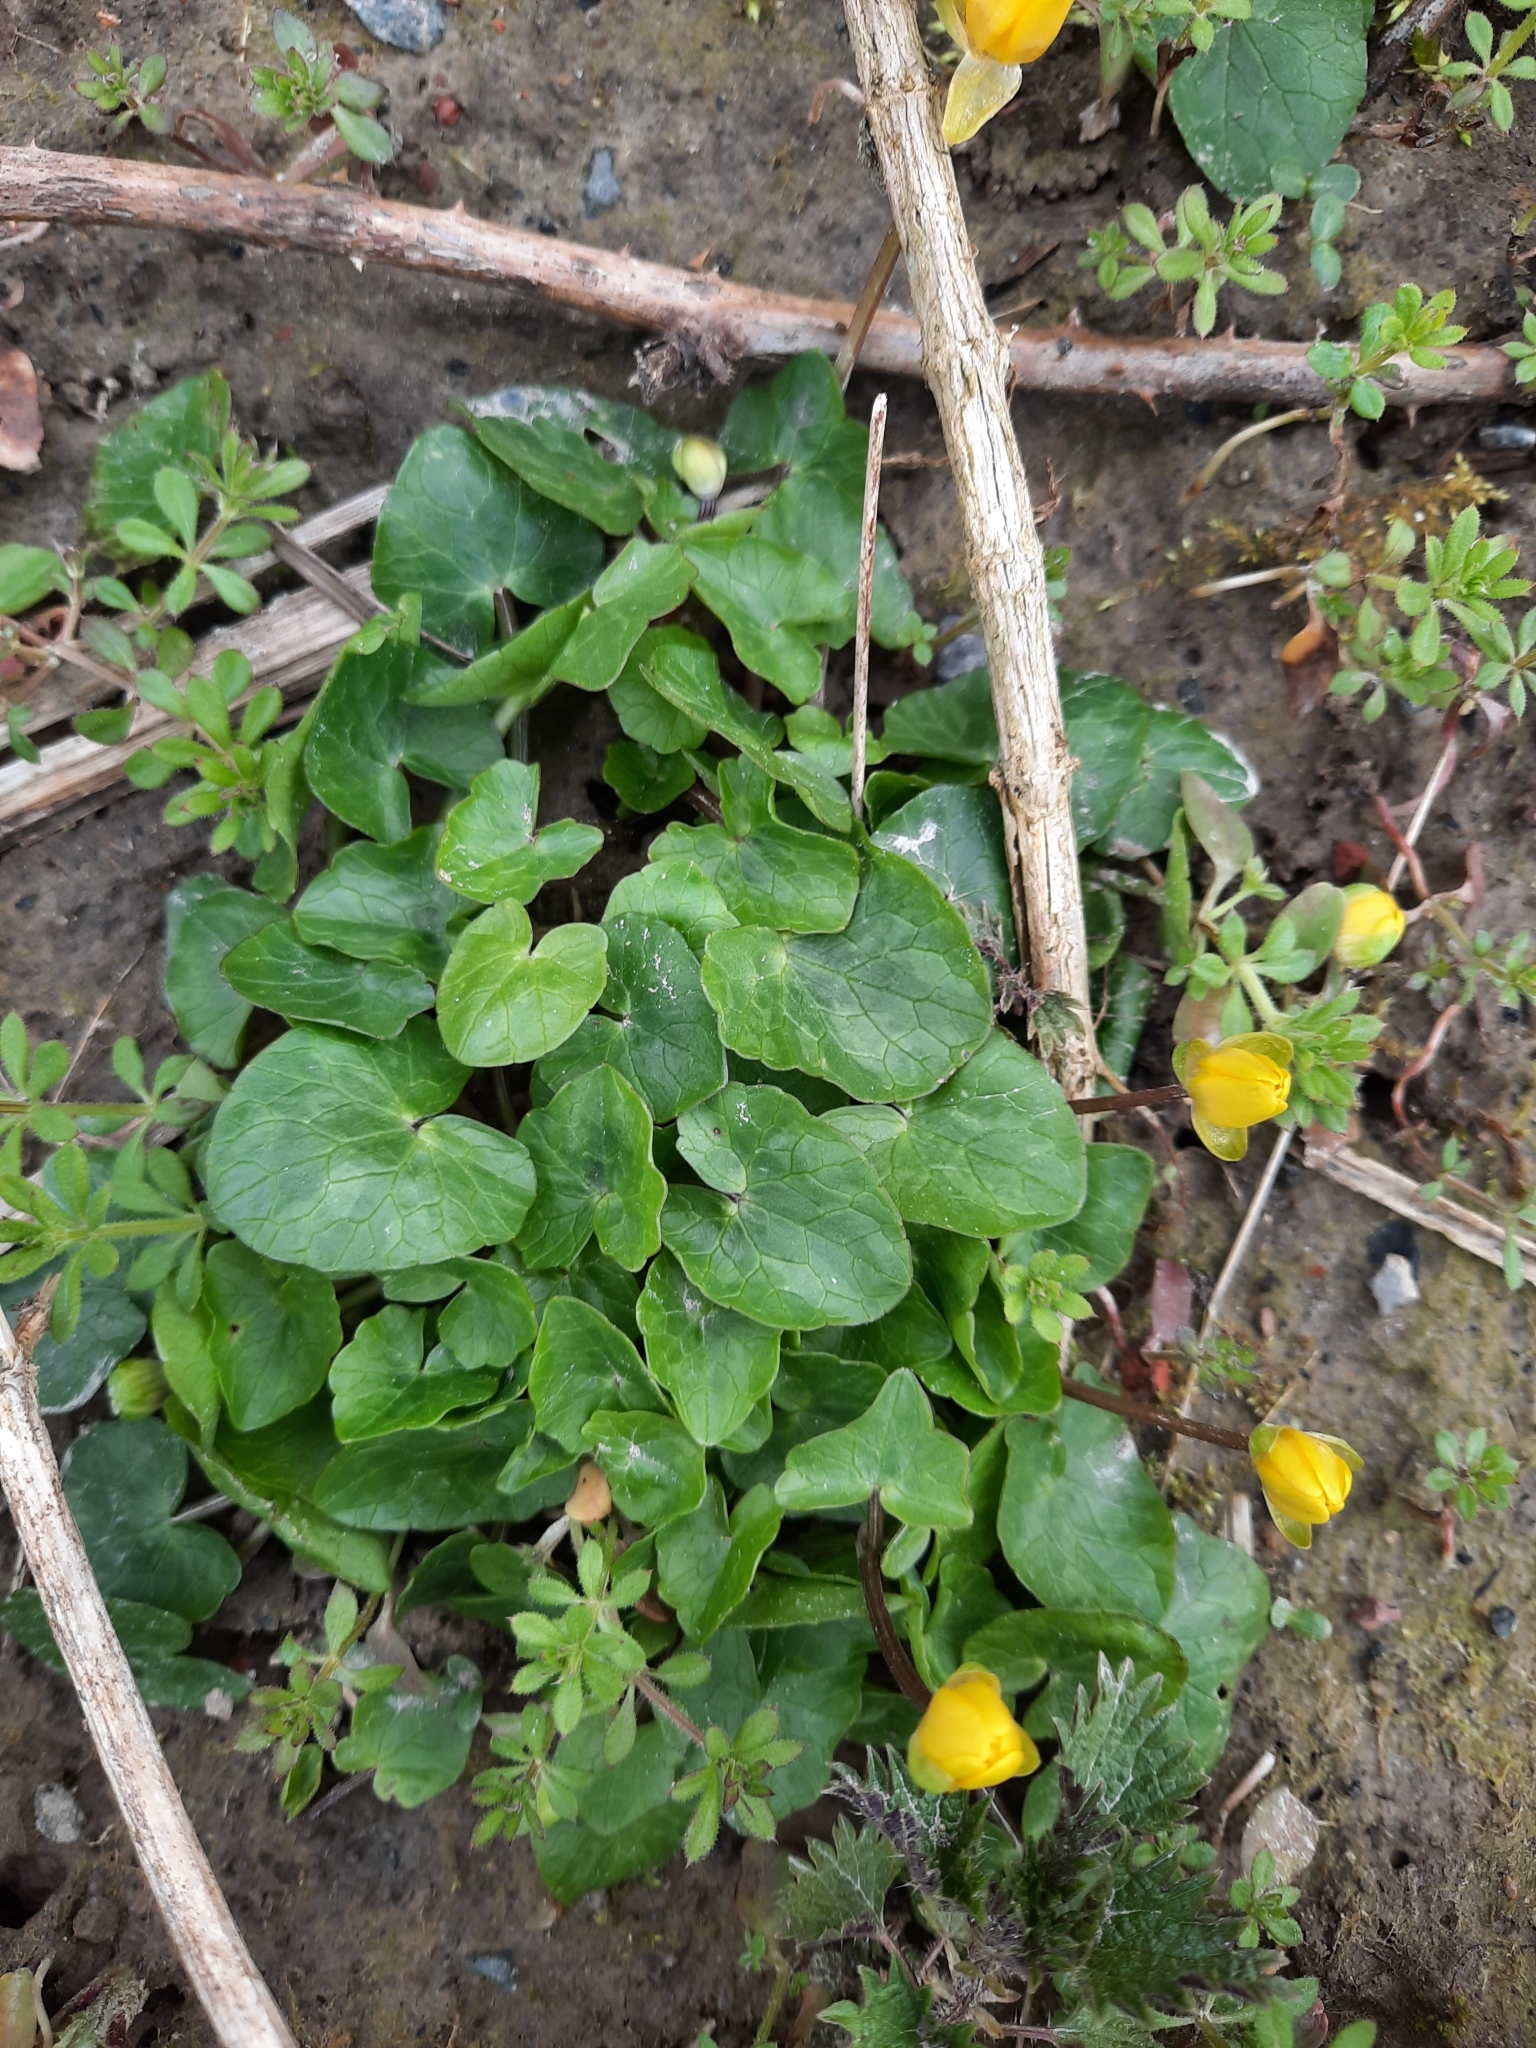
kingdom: Plantae
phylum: Tracheophyta
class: Magnoliopsida
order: Ranunculales
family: Ranunculaceae
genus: Ficaria
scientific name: Ficaria verna
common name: Lesser celandine
